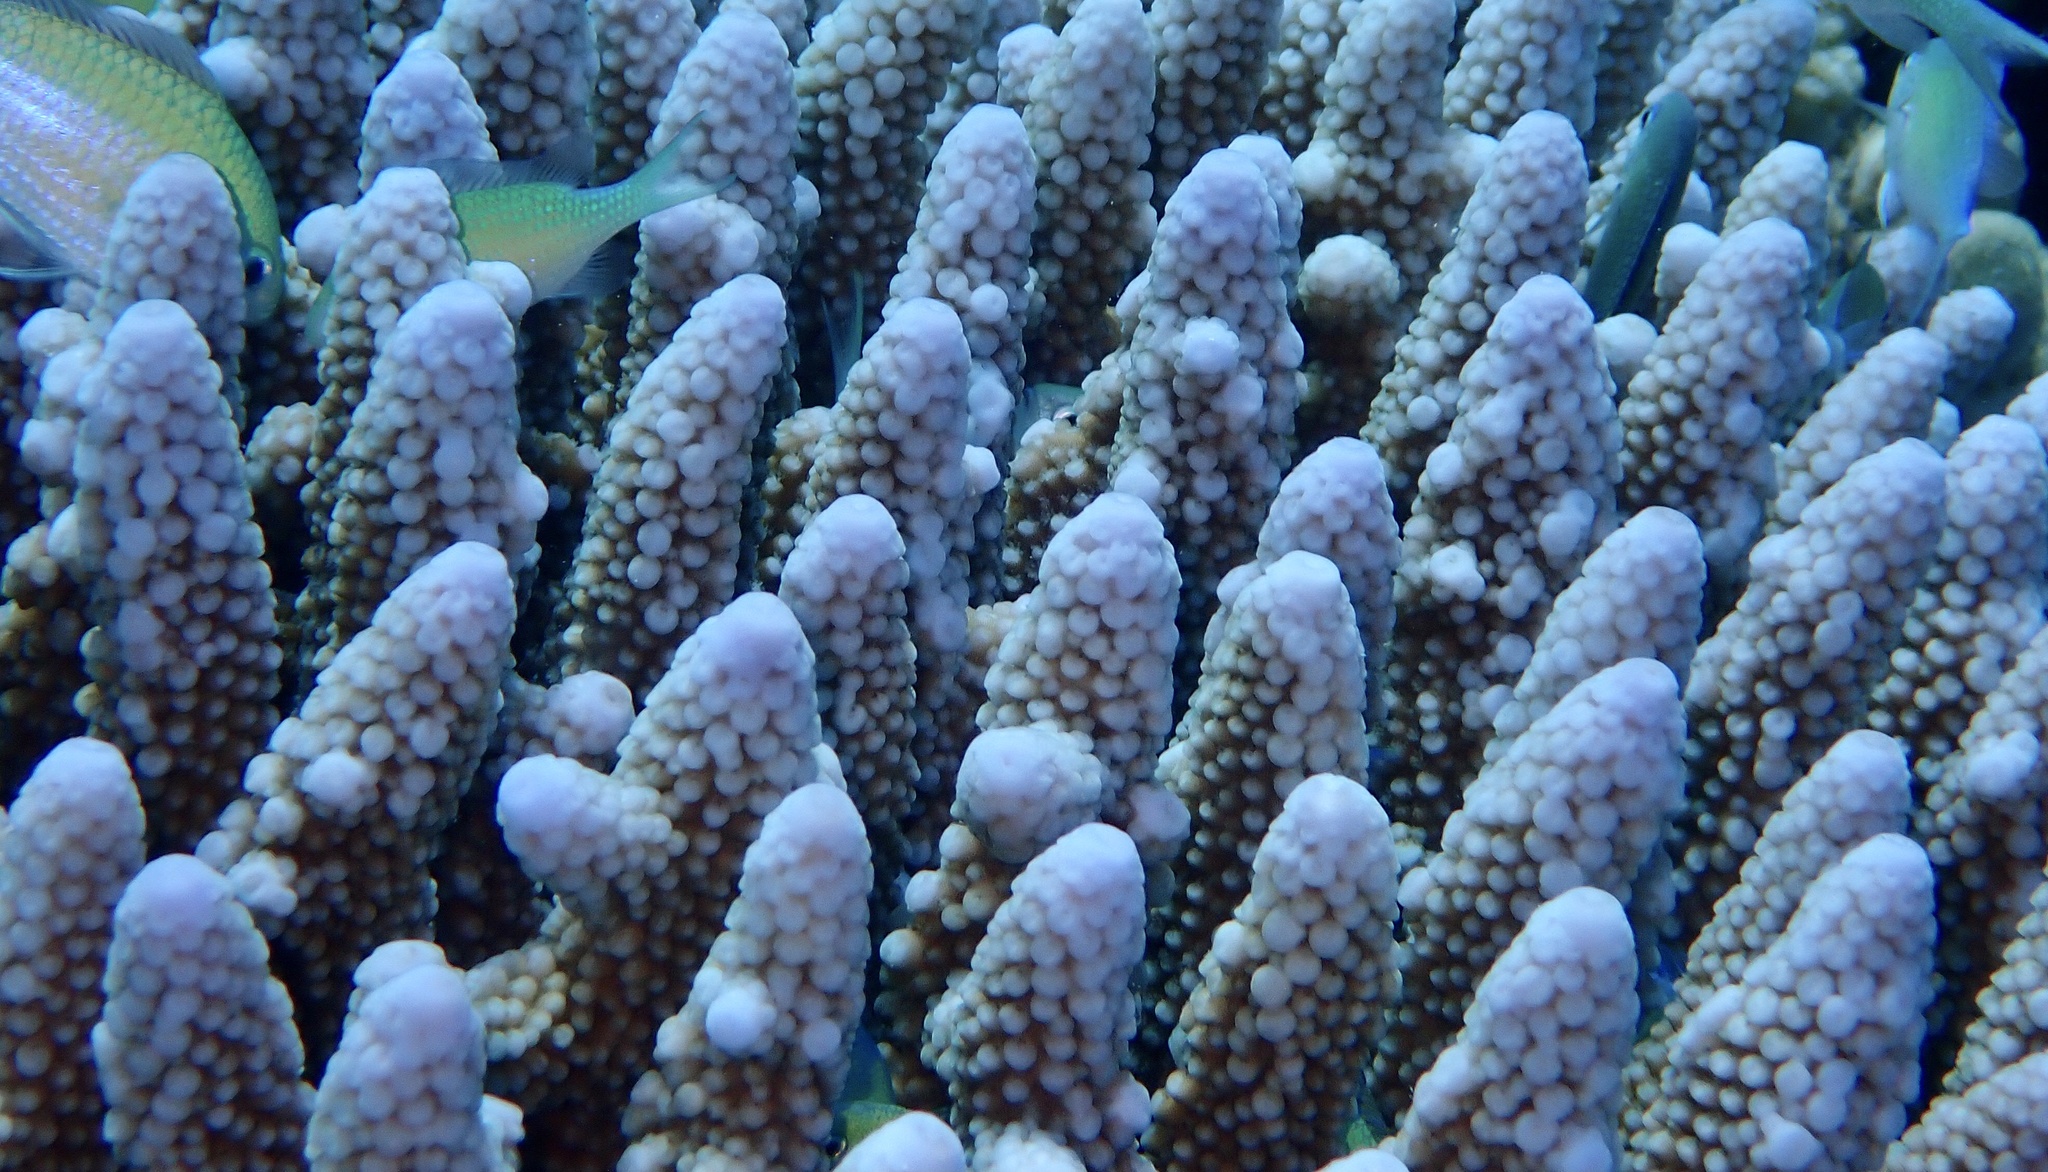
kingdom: Animalia
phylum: Cnidaria
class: Anthozoa
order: Scleractinia
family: Acroporidae
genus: Acropora
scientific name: Acropora gemmifera
